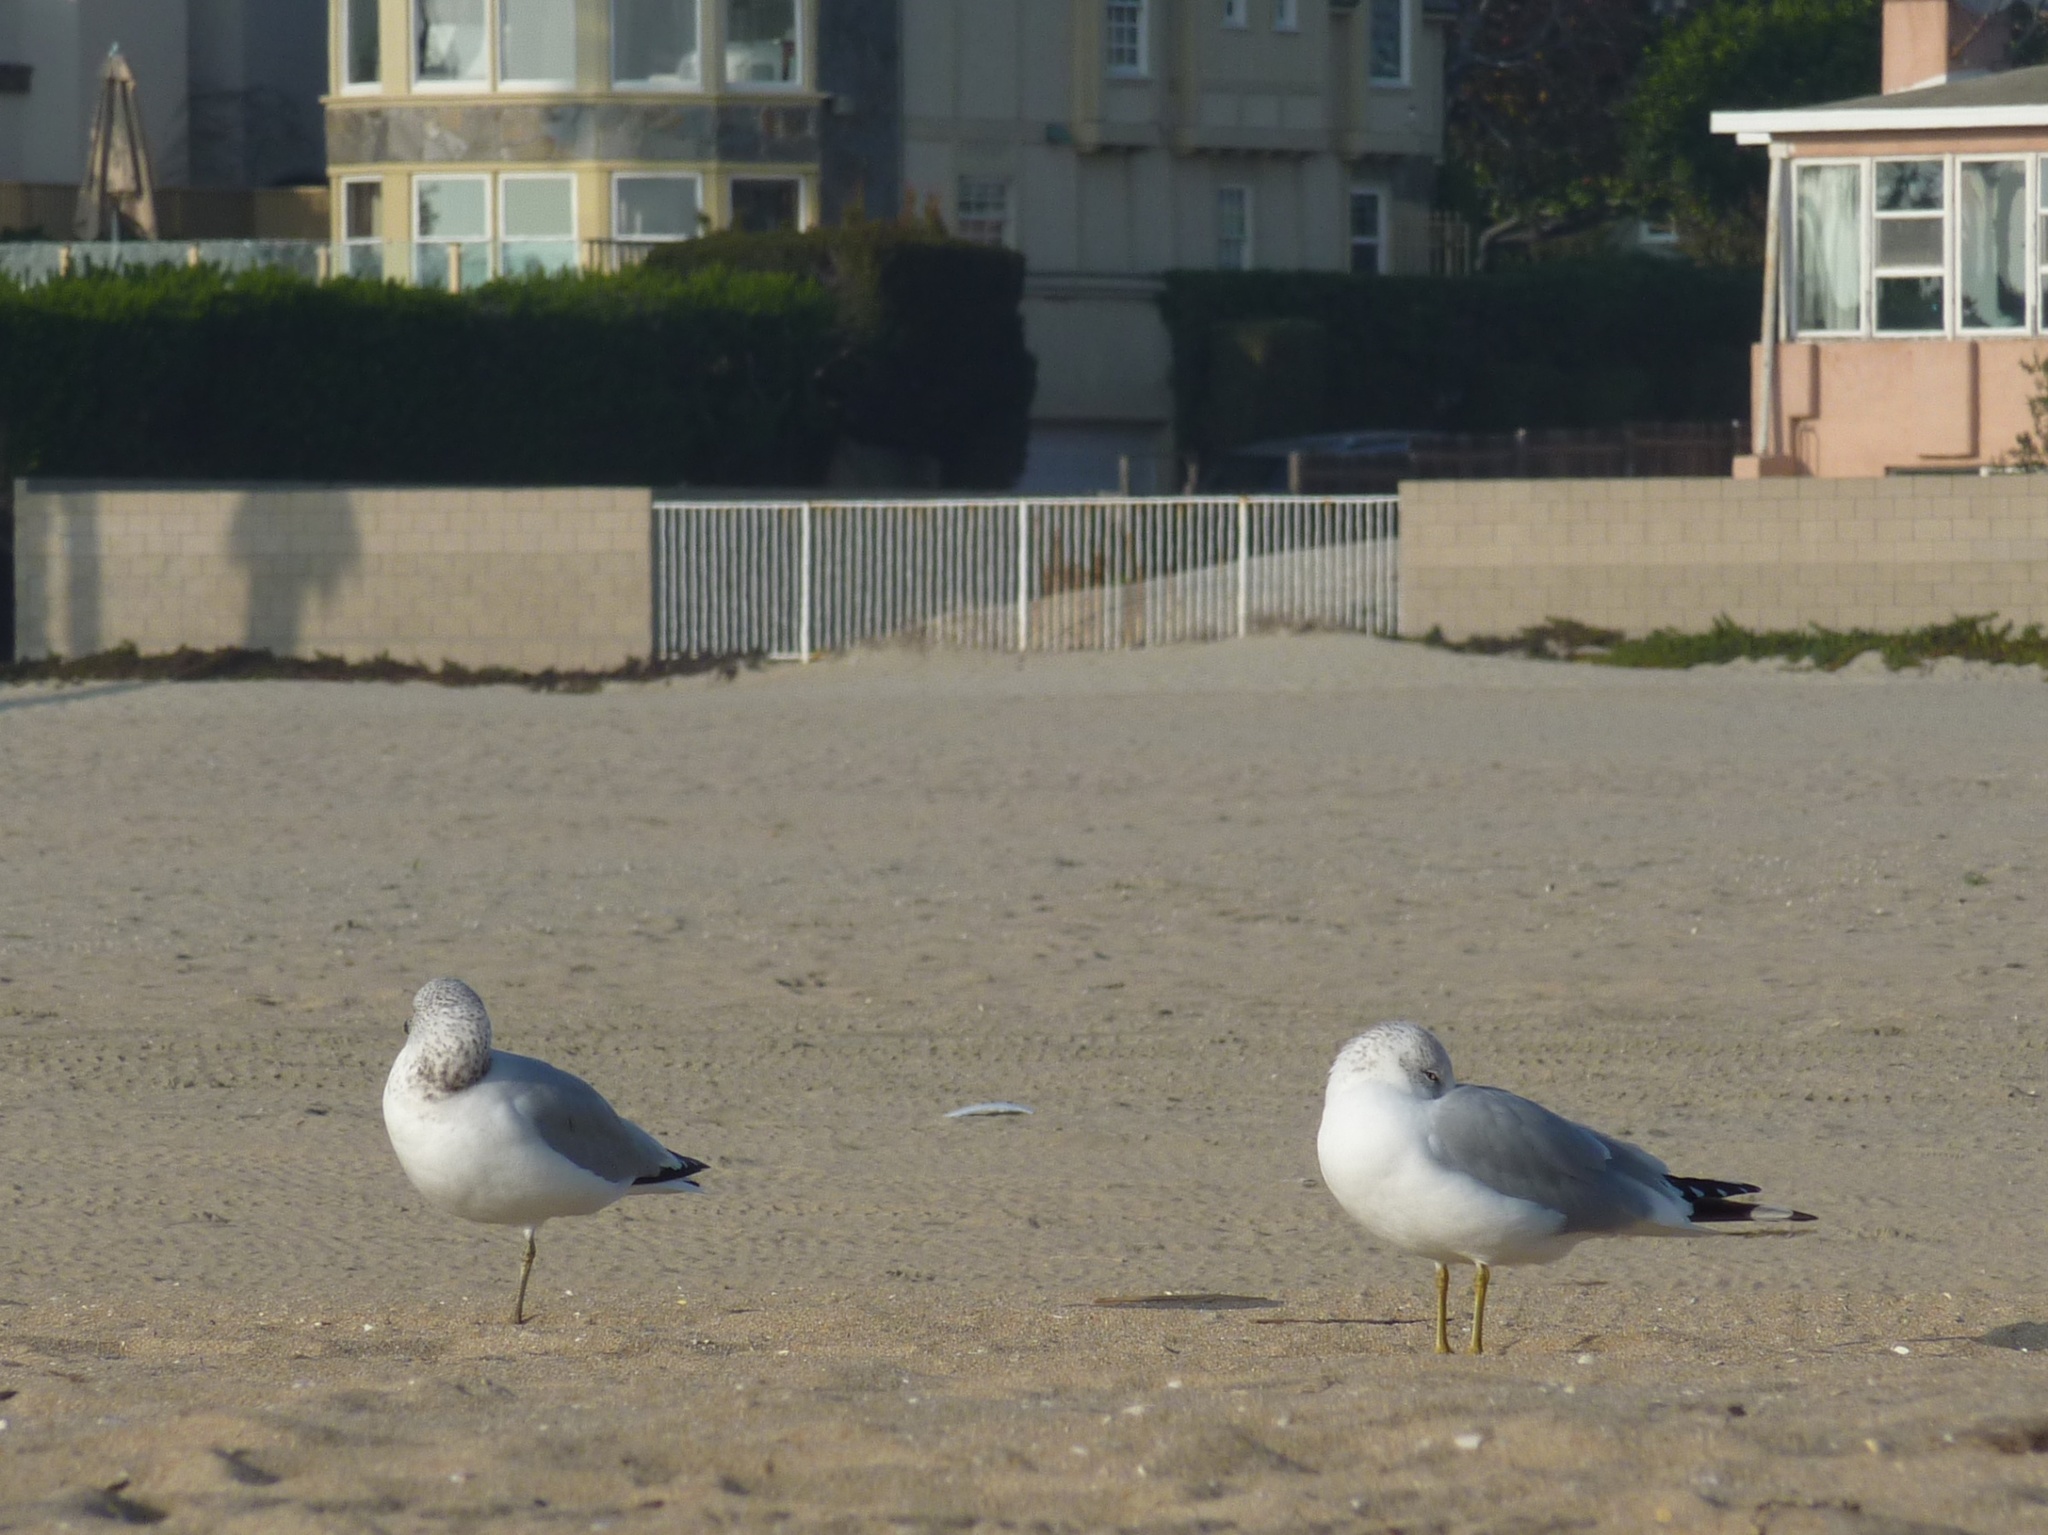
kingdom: Animalia
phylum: Chordata
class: Aves
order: Charadriiformes
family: Laridae
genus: Larus
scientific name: Larus delawarensis
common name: Ring-billed gull
